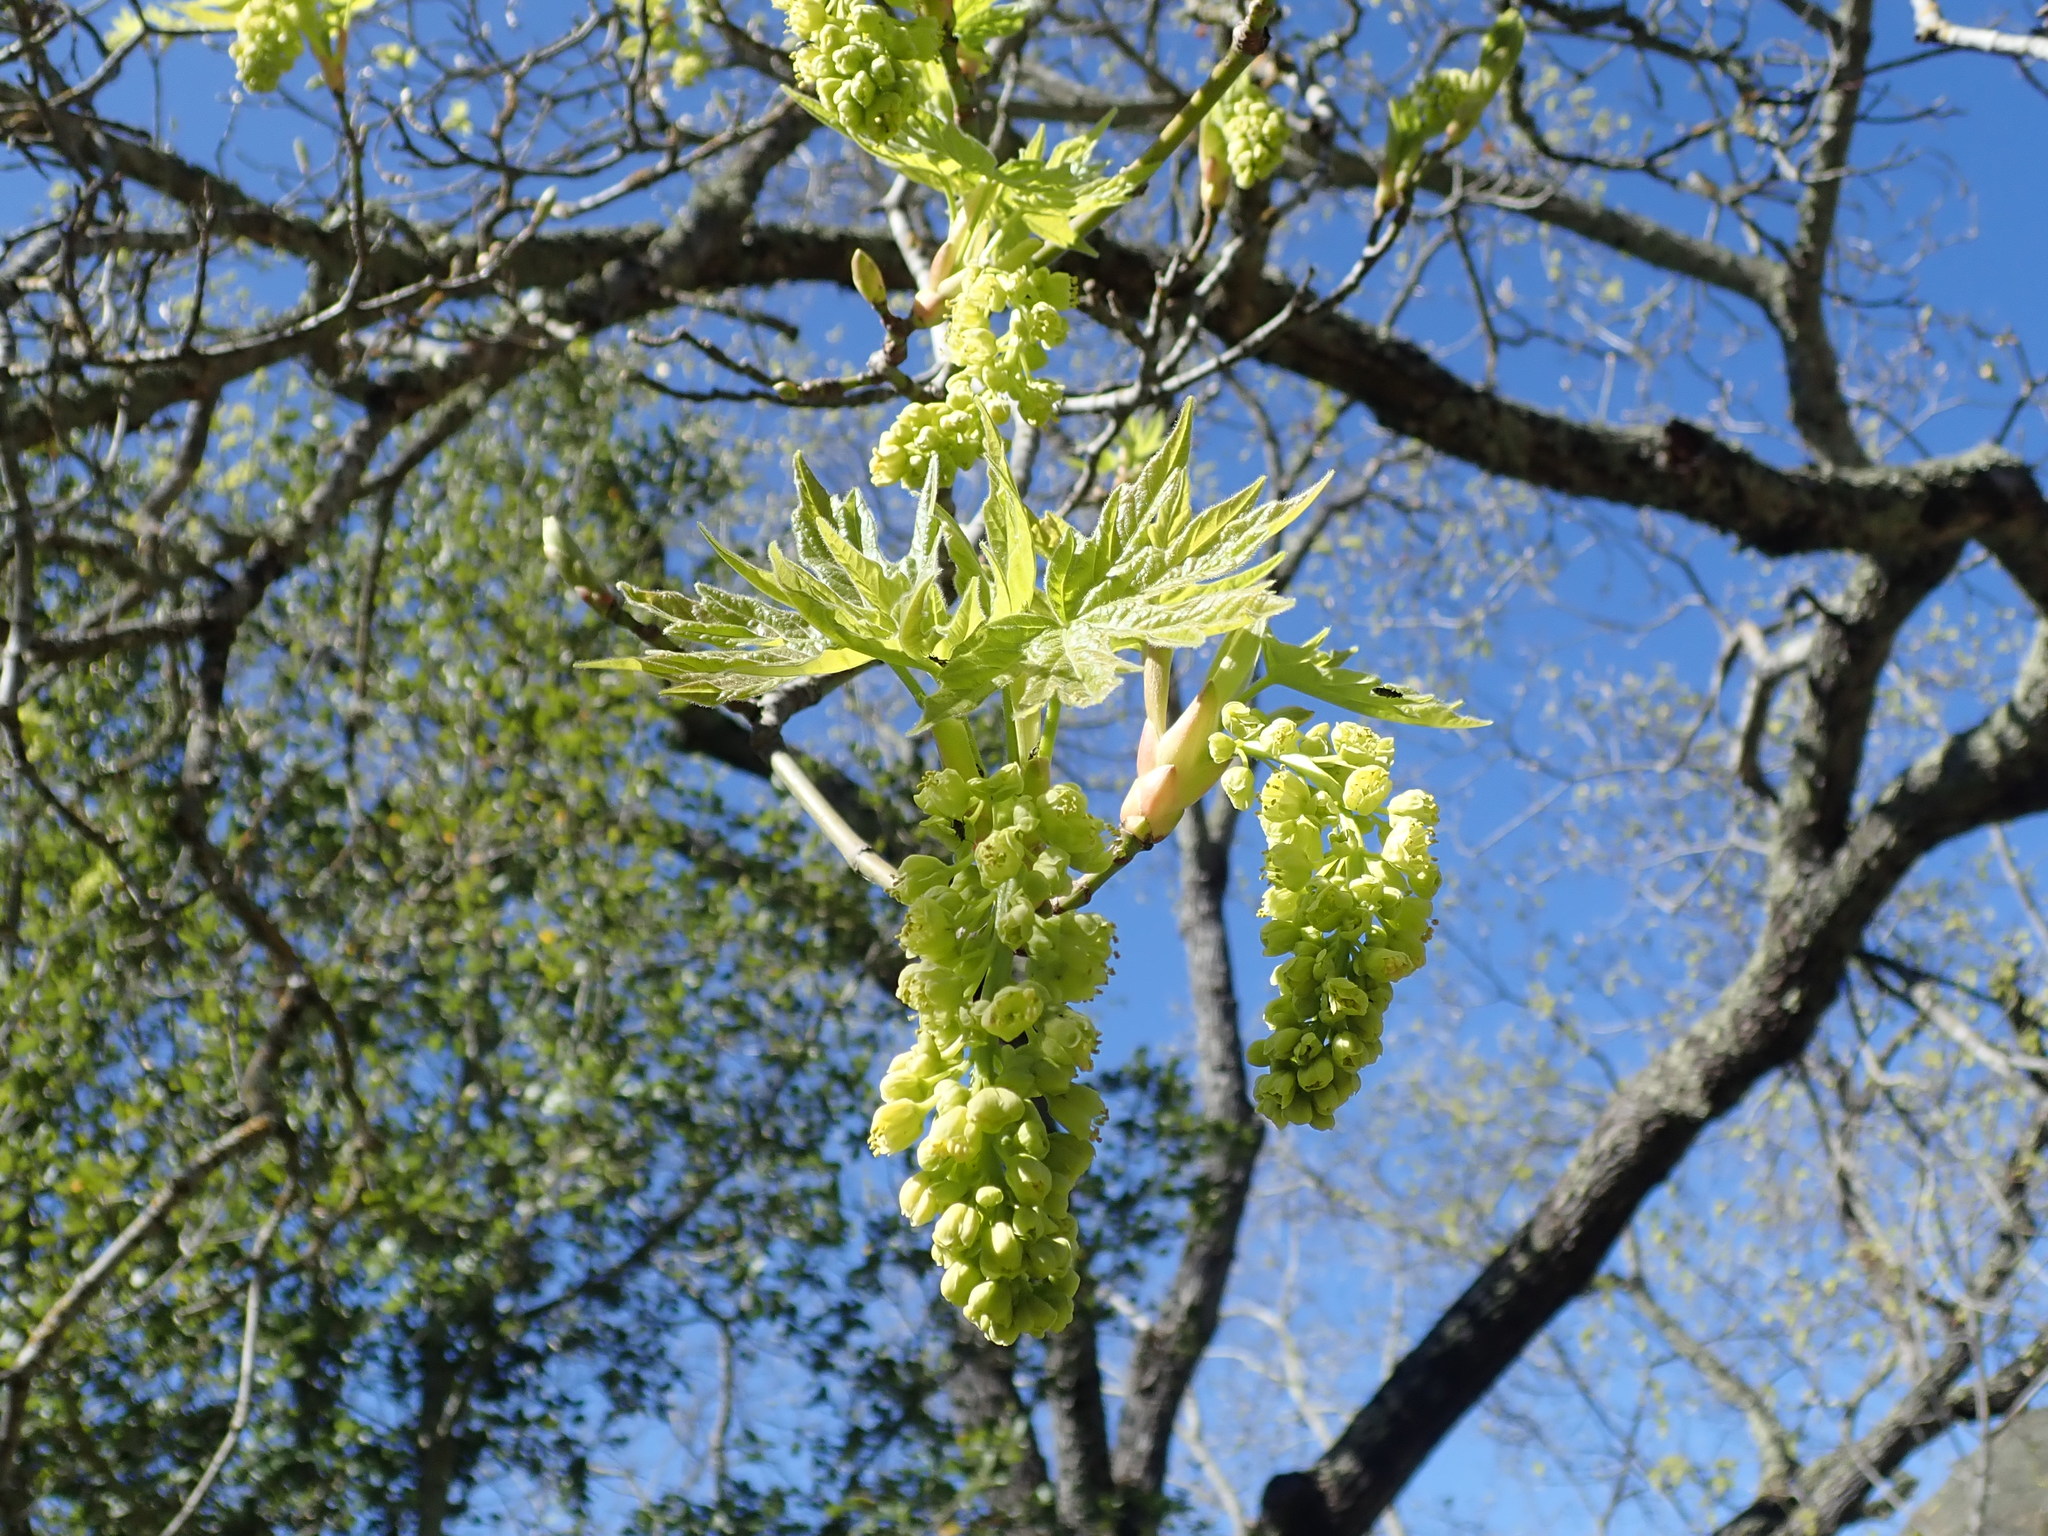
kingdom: Plantae
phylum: Tracheophyta
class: Magnoliopsida
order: Sapindales
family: Sapindaceae
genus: Acer
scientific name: Acer macrophyllum
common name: Oregon maple
